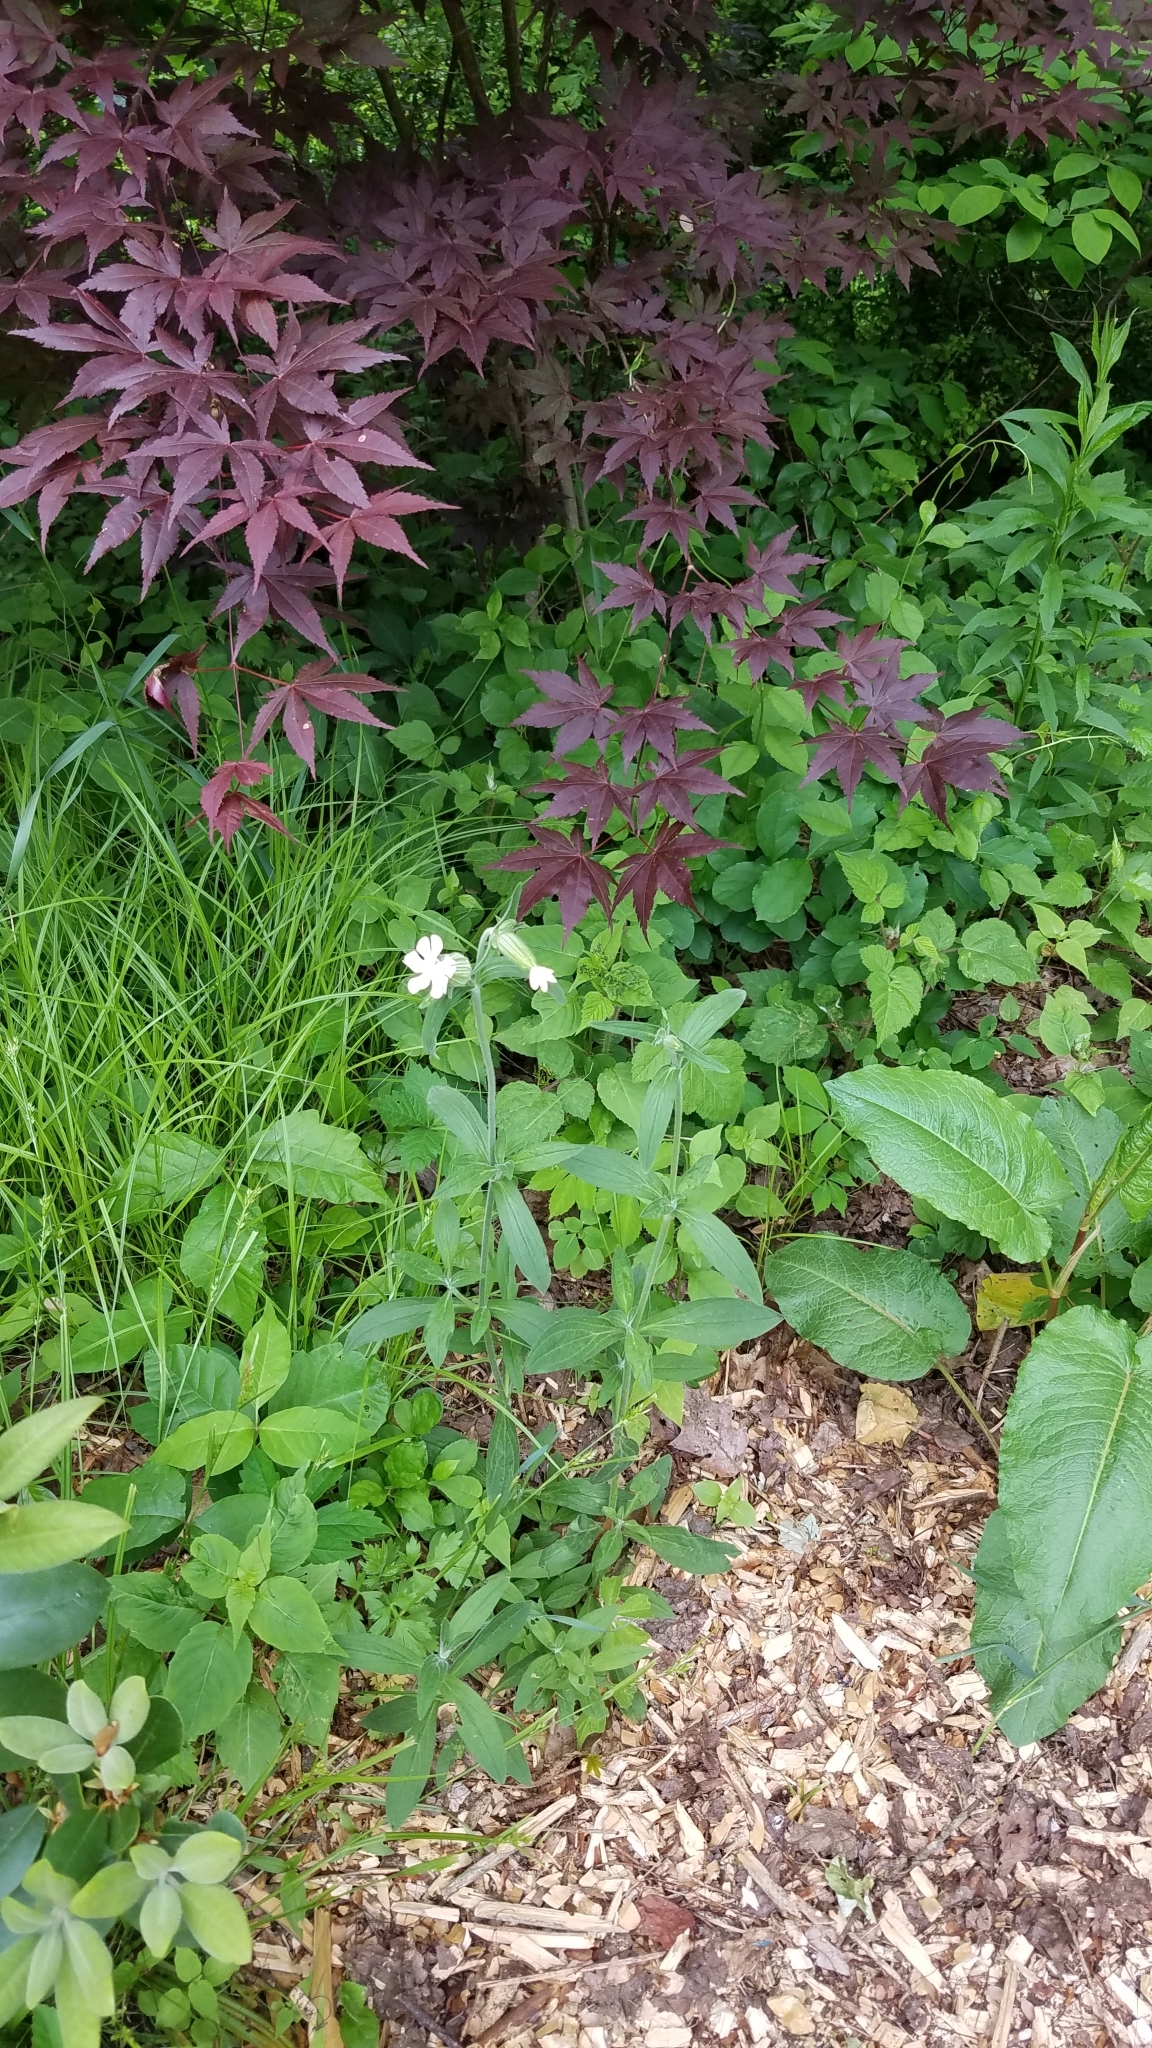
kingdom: Plantae
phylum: Tracheophyta
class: Magnoliopsida
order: Caryophyllales
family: Caryophyllaceae
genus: Silene
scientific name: Silene latifolia
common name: White campion
